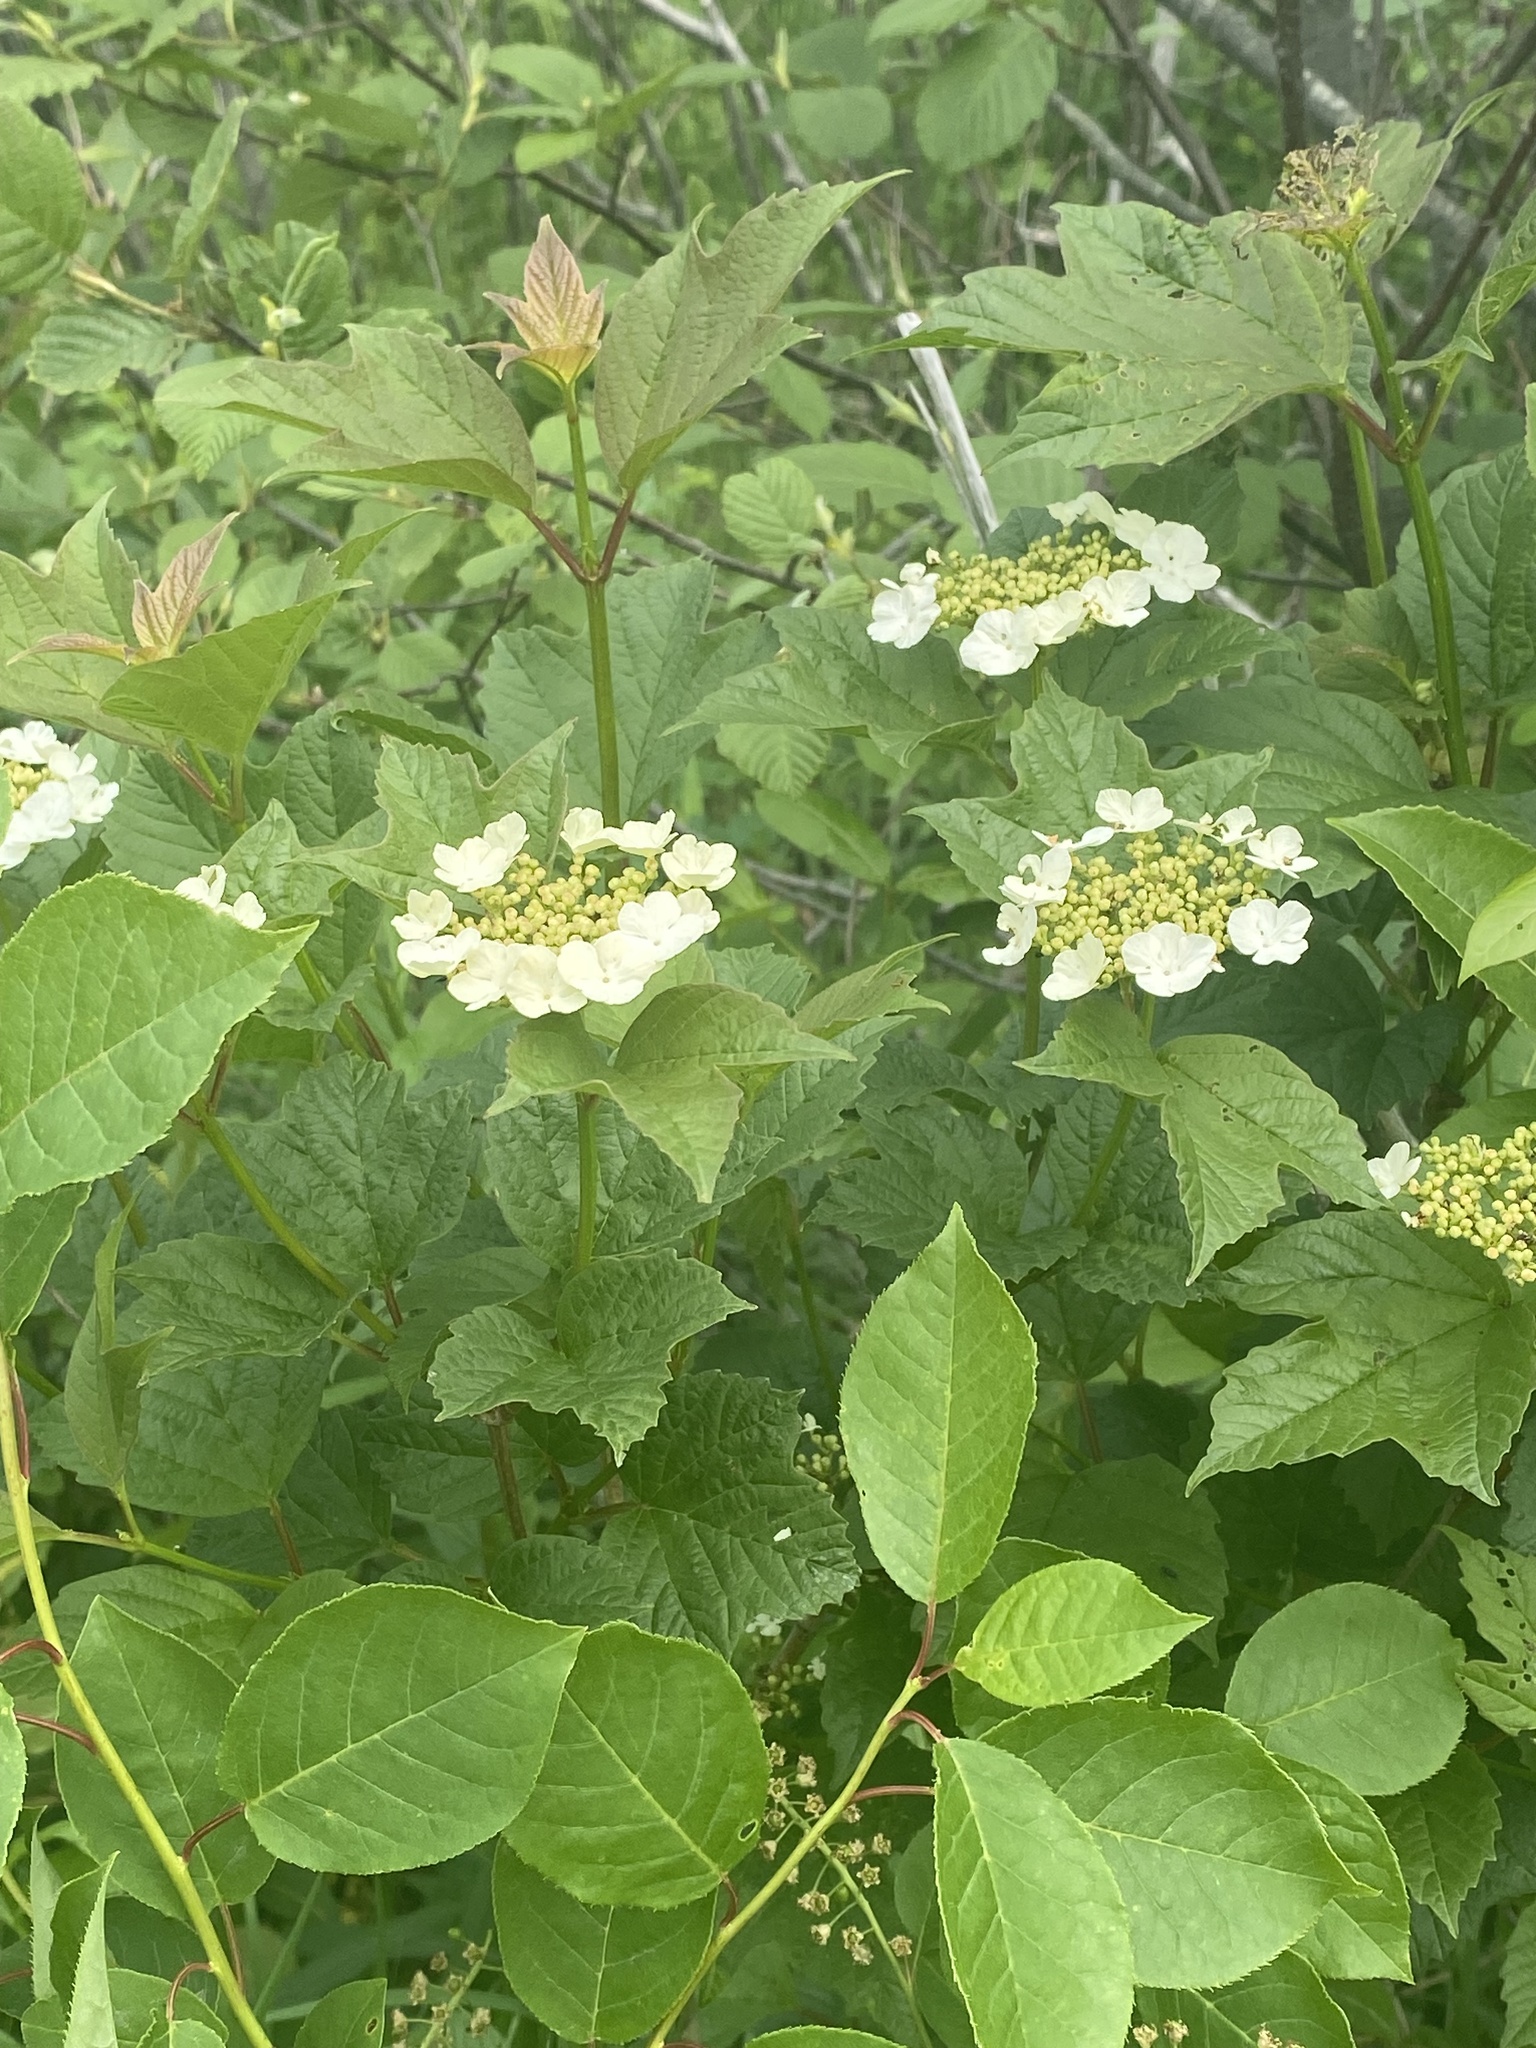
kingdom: Plantae
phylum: Tracheophyta
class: Magnoliopsida
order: Dipsacales
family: Viburnaceae
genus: Viburnum
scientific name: Viburnum opulus
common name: Guelder-rose
